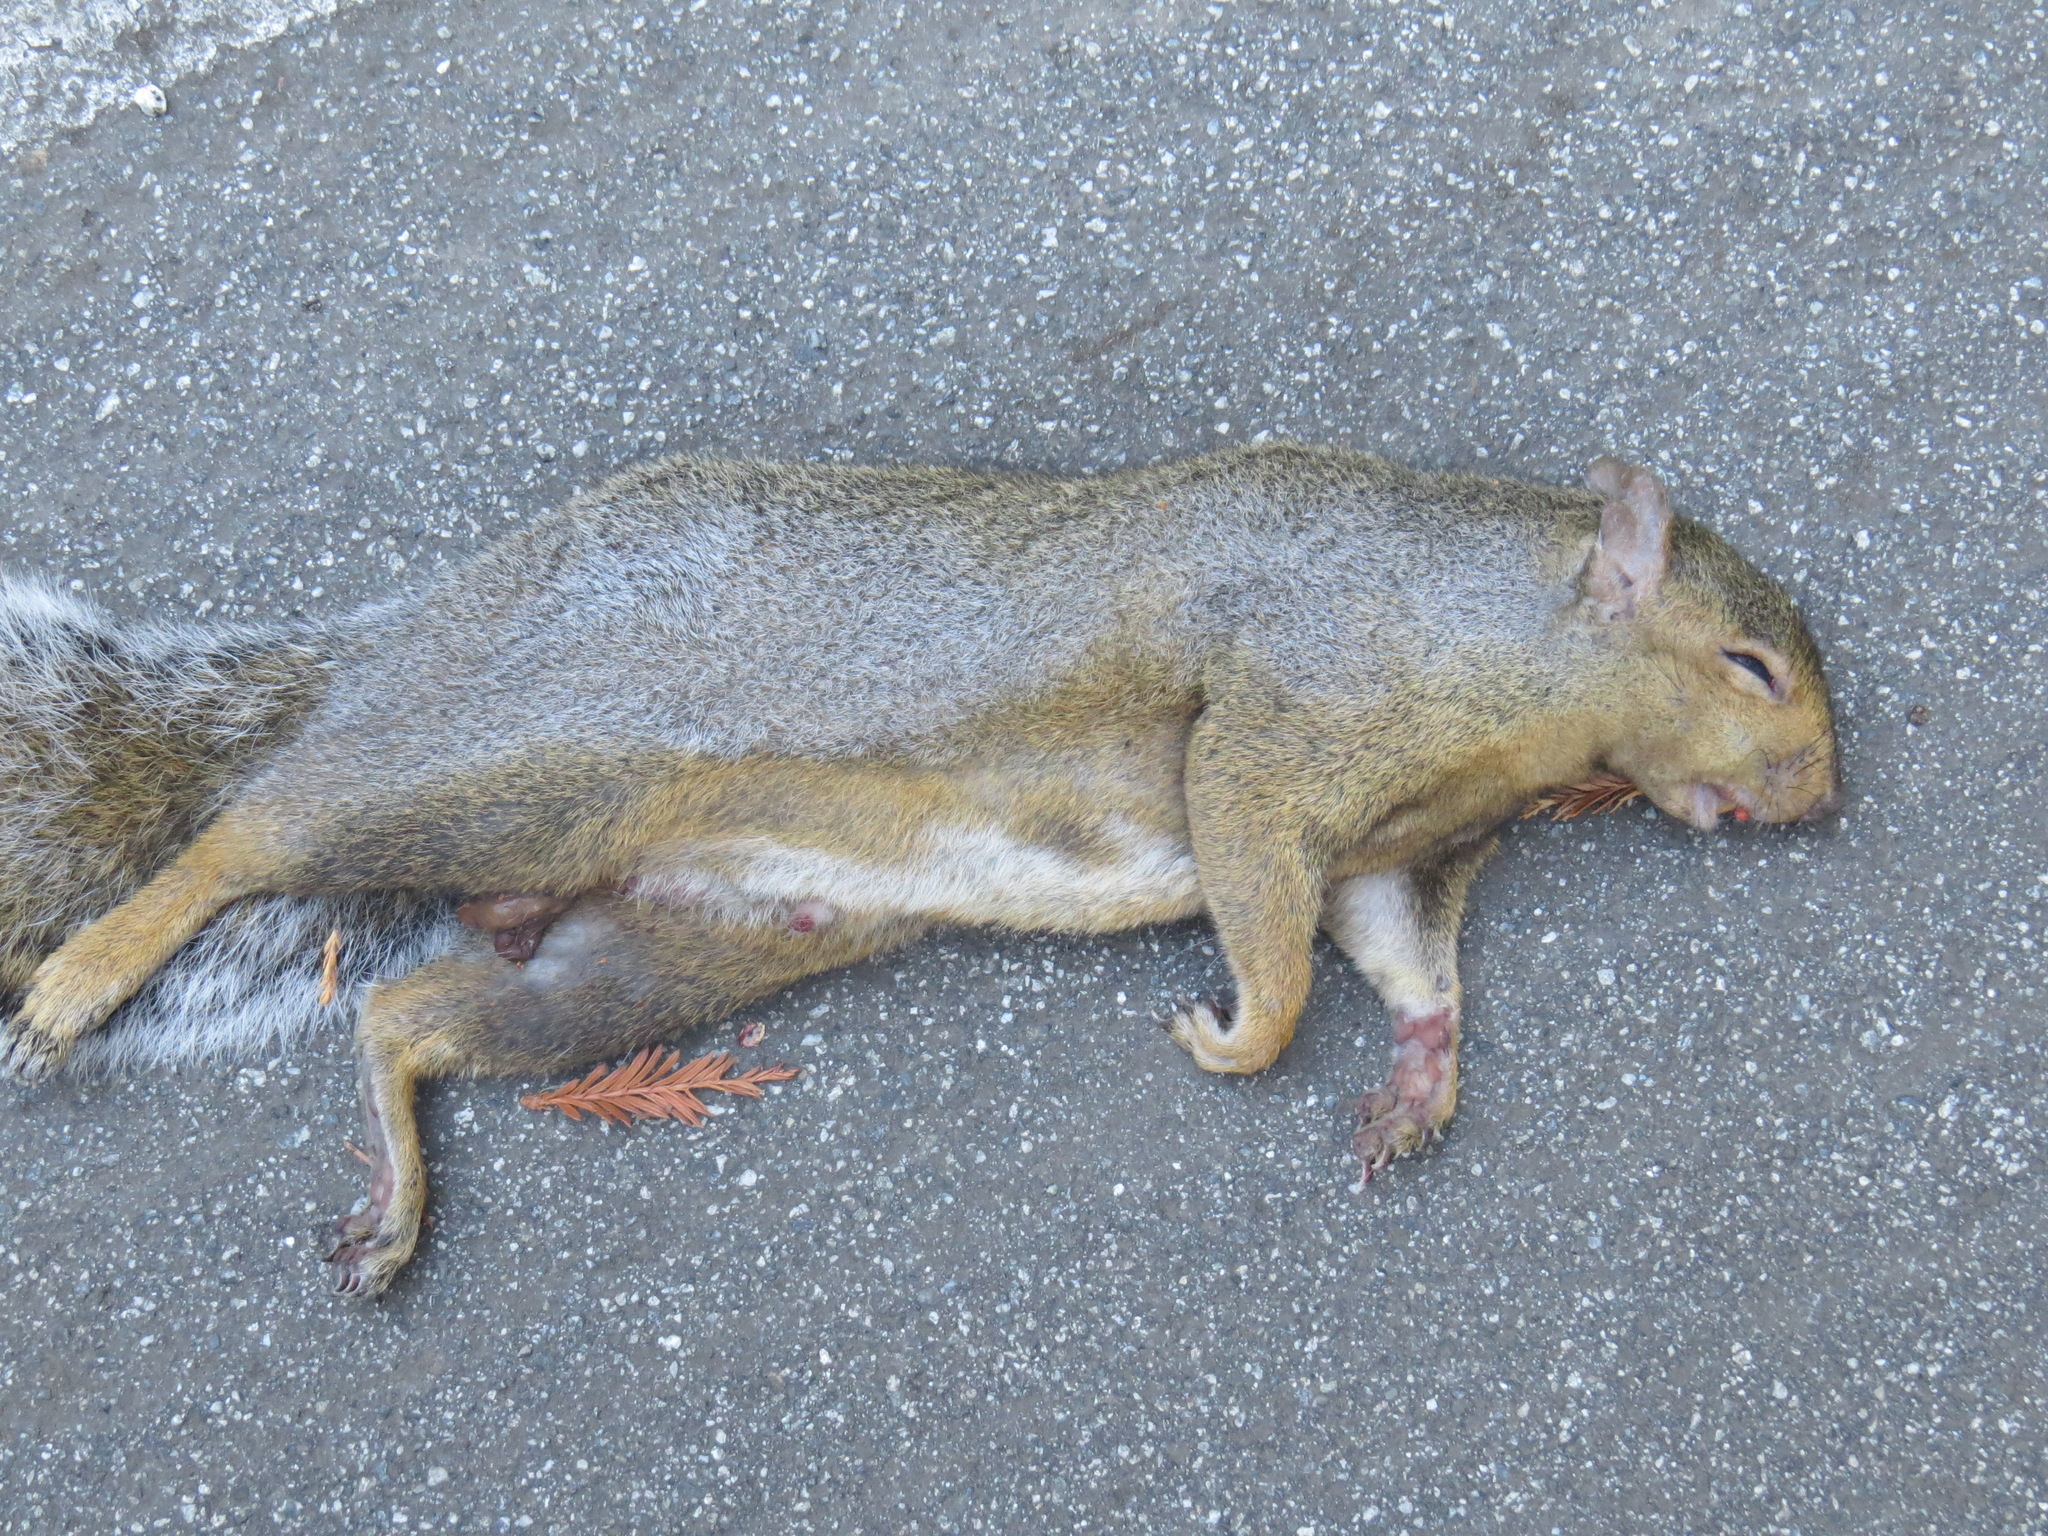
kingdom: Animalia
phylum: Chordata
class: Mammalia
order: Rodentia
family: Sciuridae
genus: Sciurus
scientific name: Sciurus carolinensis
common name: Eastern gray squirrel
